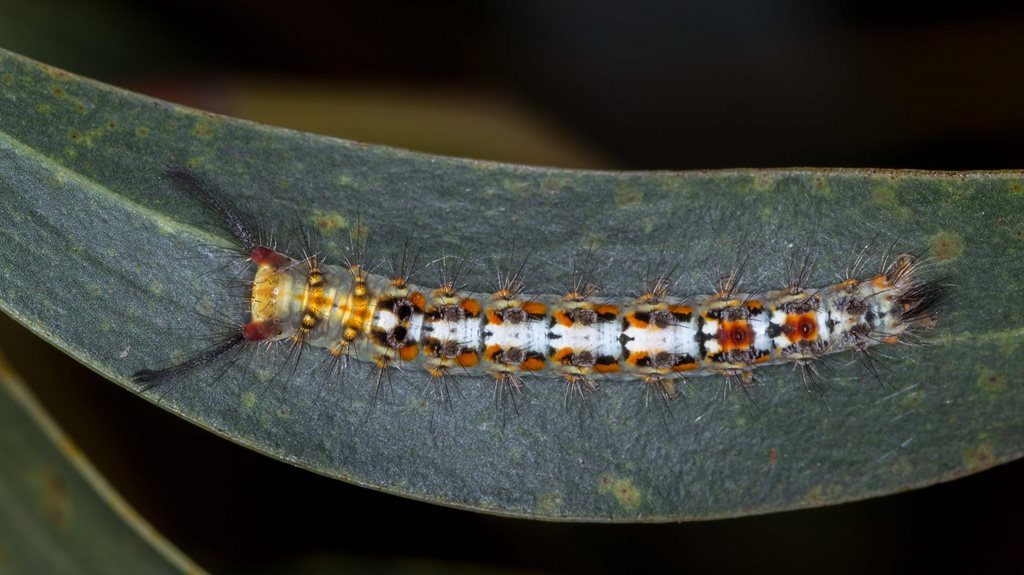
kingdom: Animalia
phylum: Arthropoda
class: Insecta
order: Lepidoptera
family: Erebidae
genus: Acyphas
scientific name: Acyphas semiochrea
